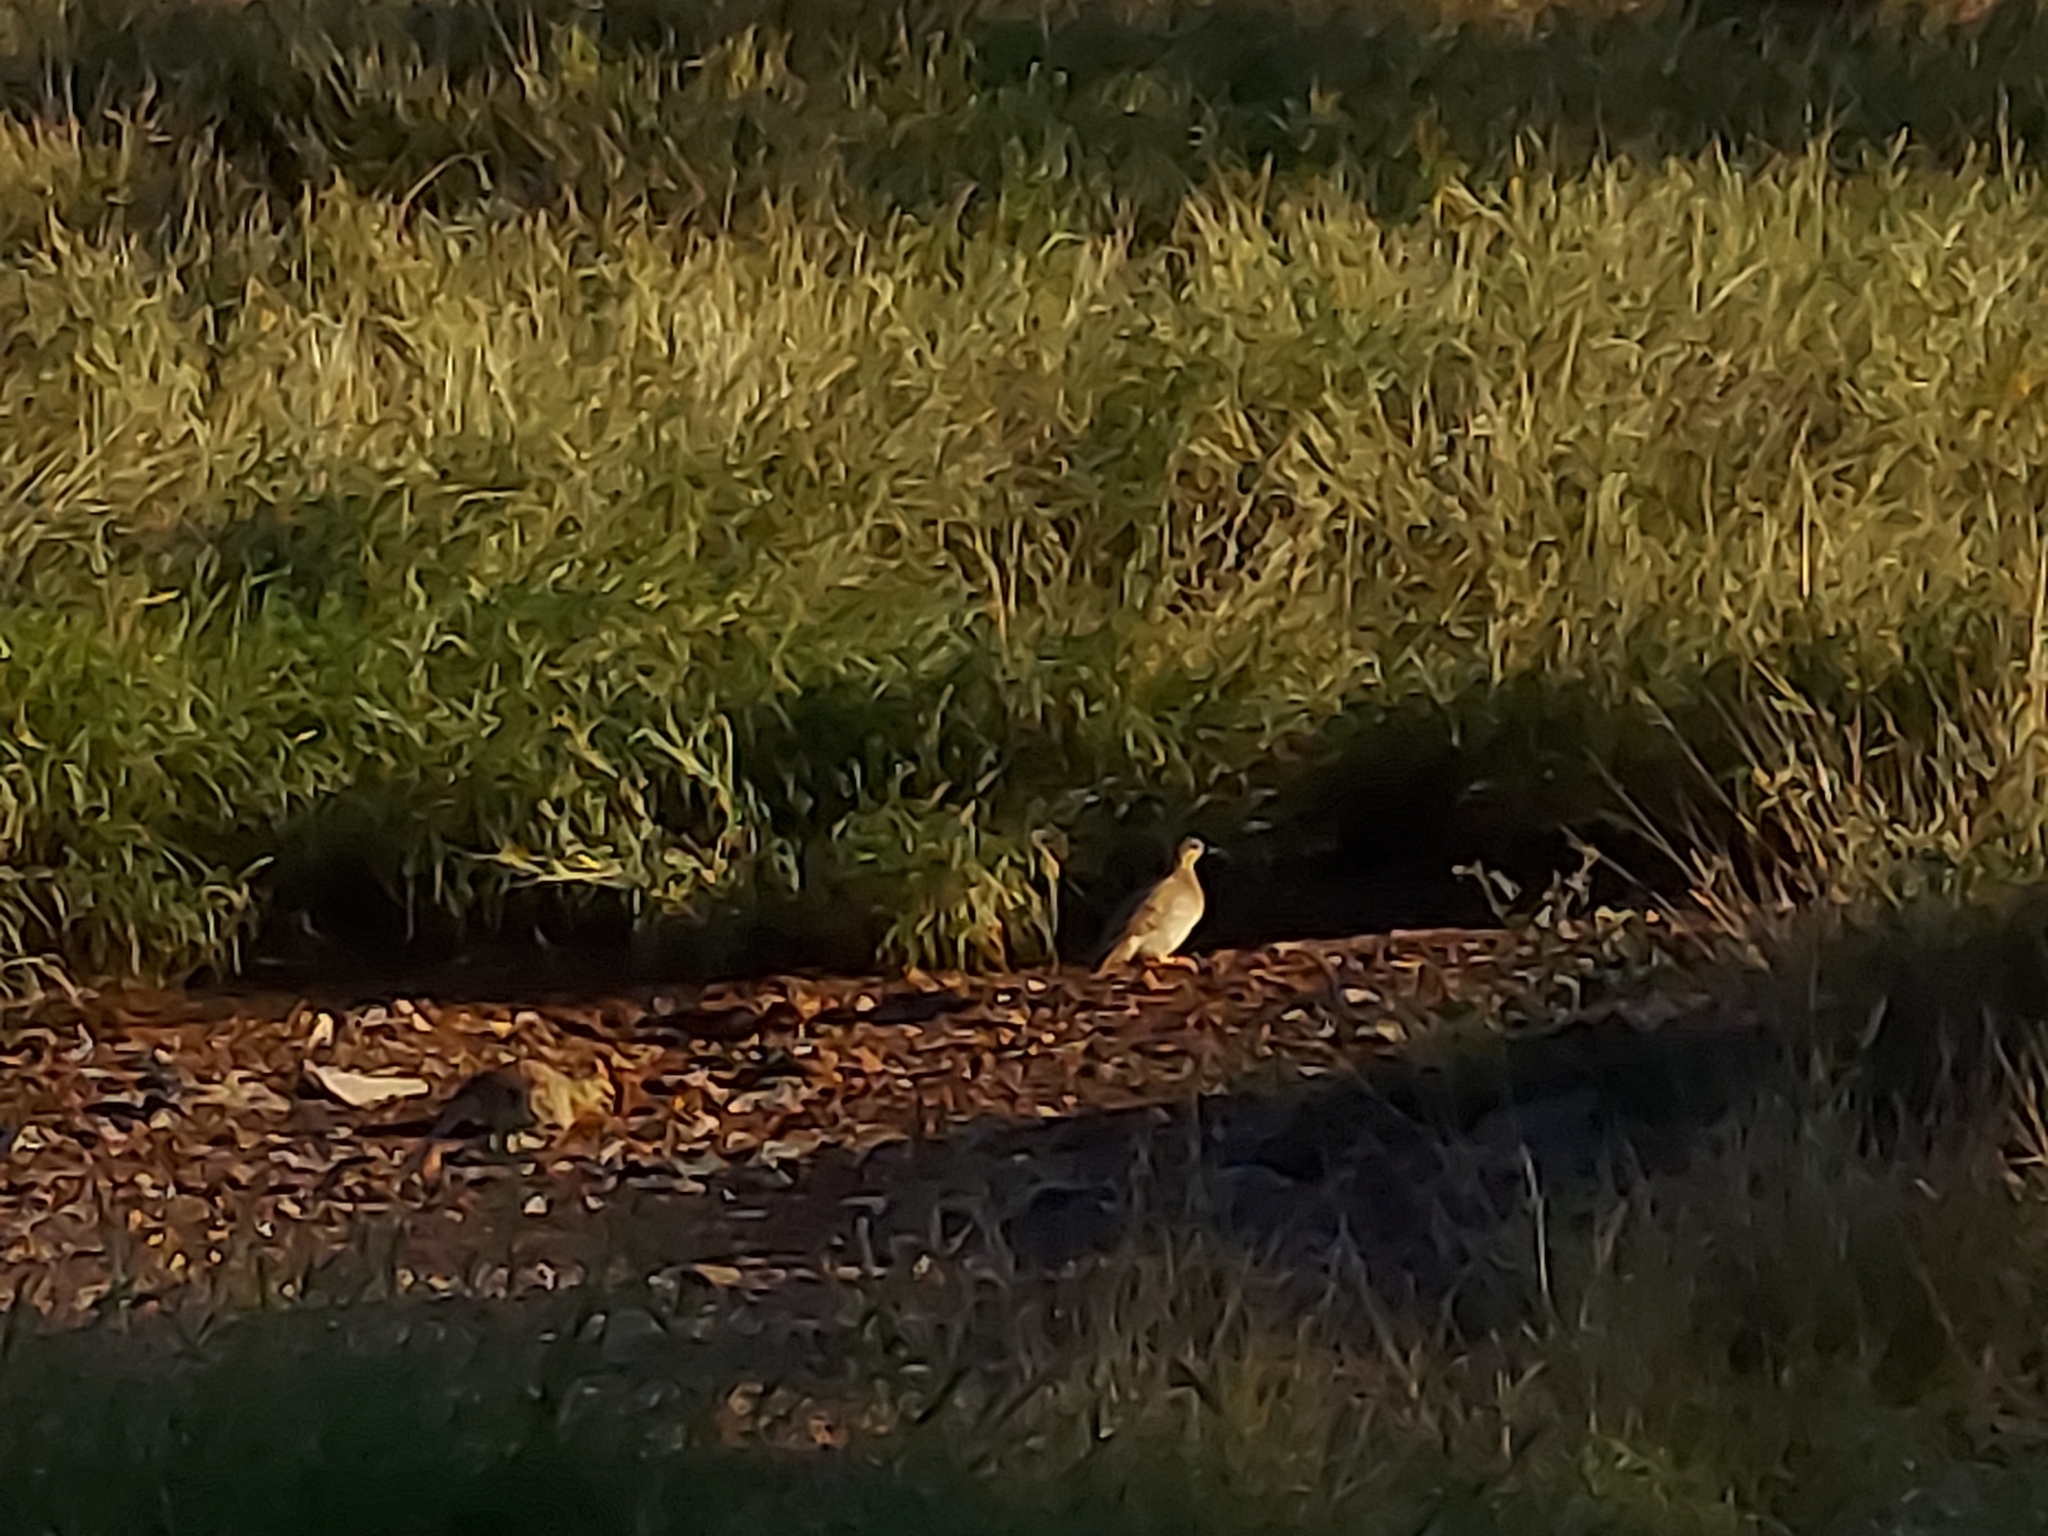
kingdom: Animalia
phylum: Chordata
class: Aves
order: Galliformes
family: Phasianidae
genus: Ortygornis
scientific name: Ortygornis pondicerianus
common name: Grey francolin
